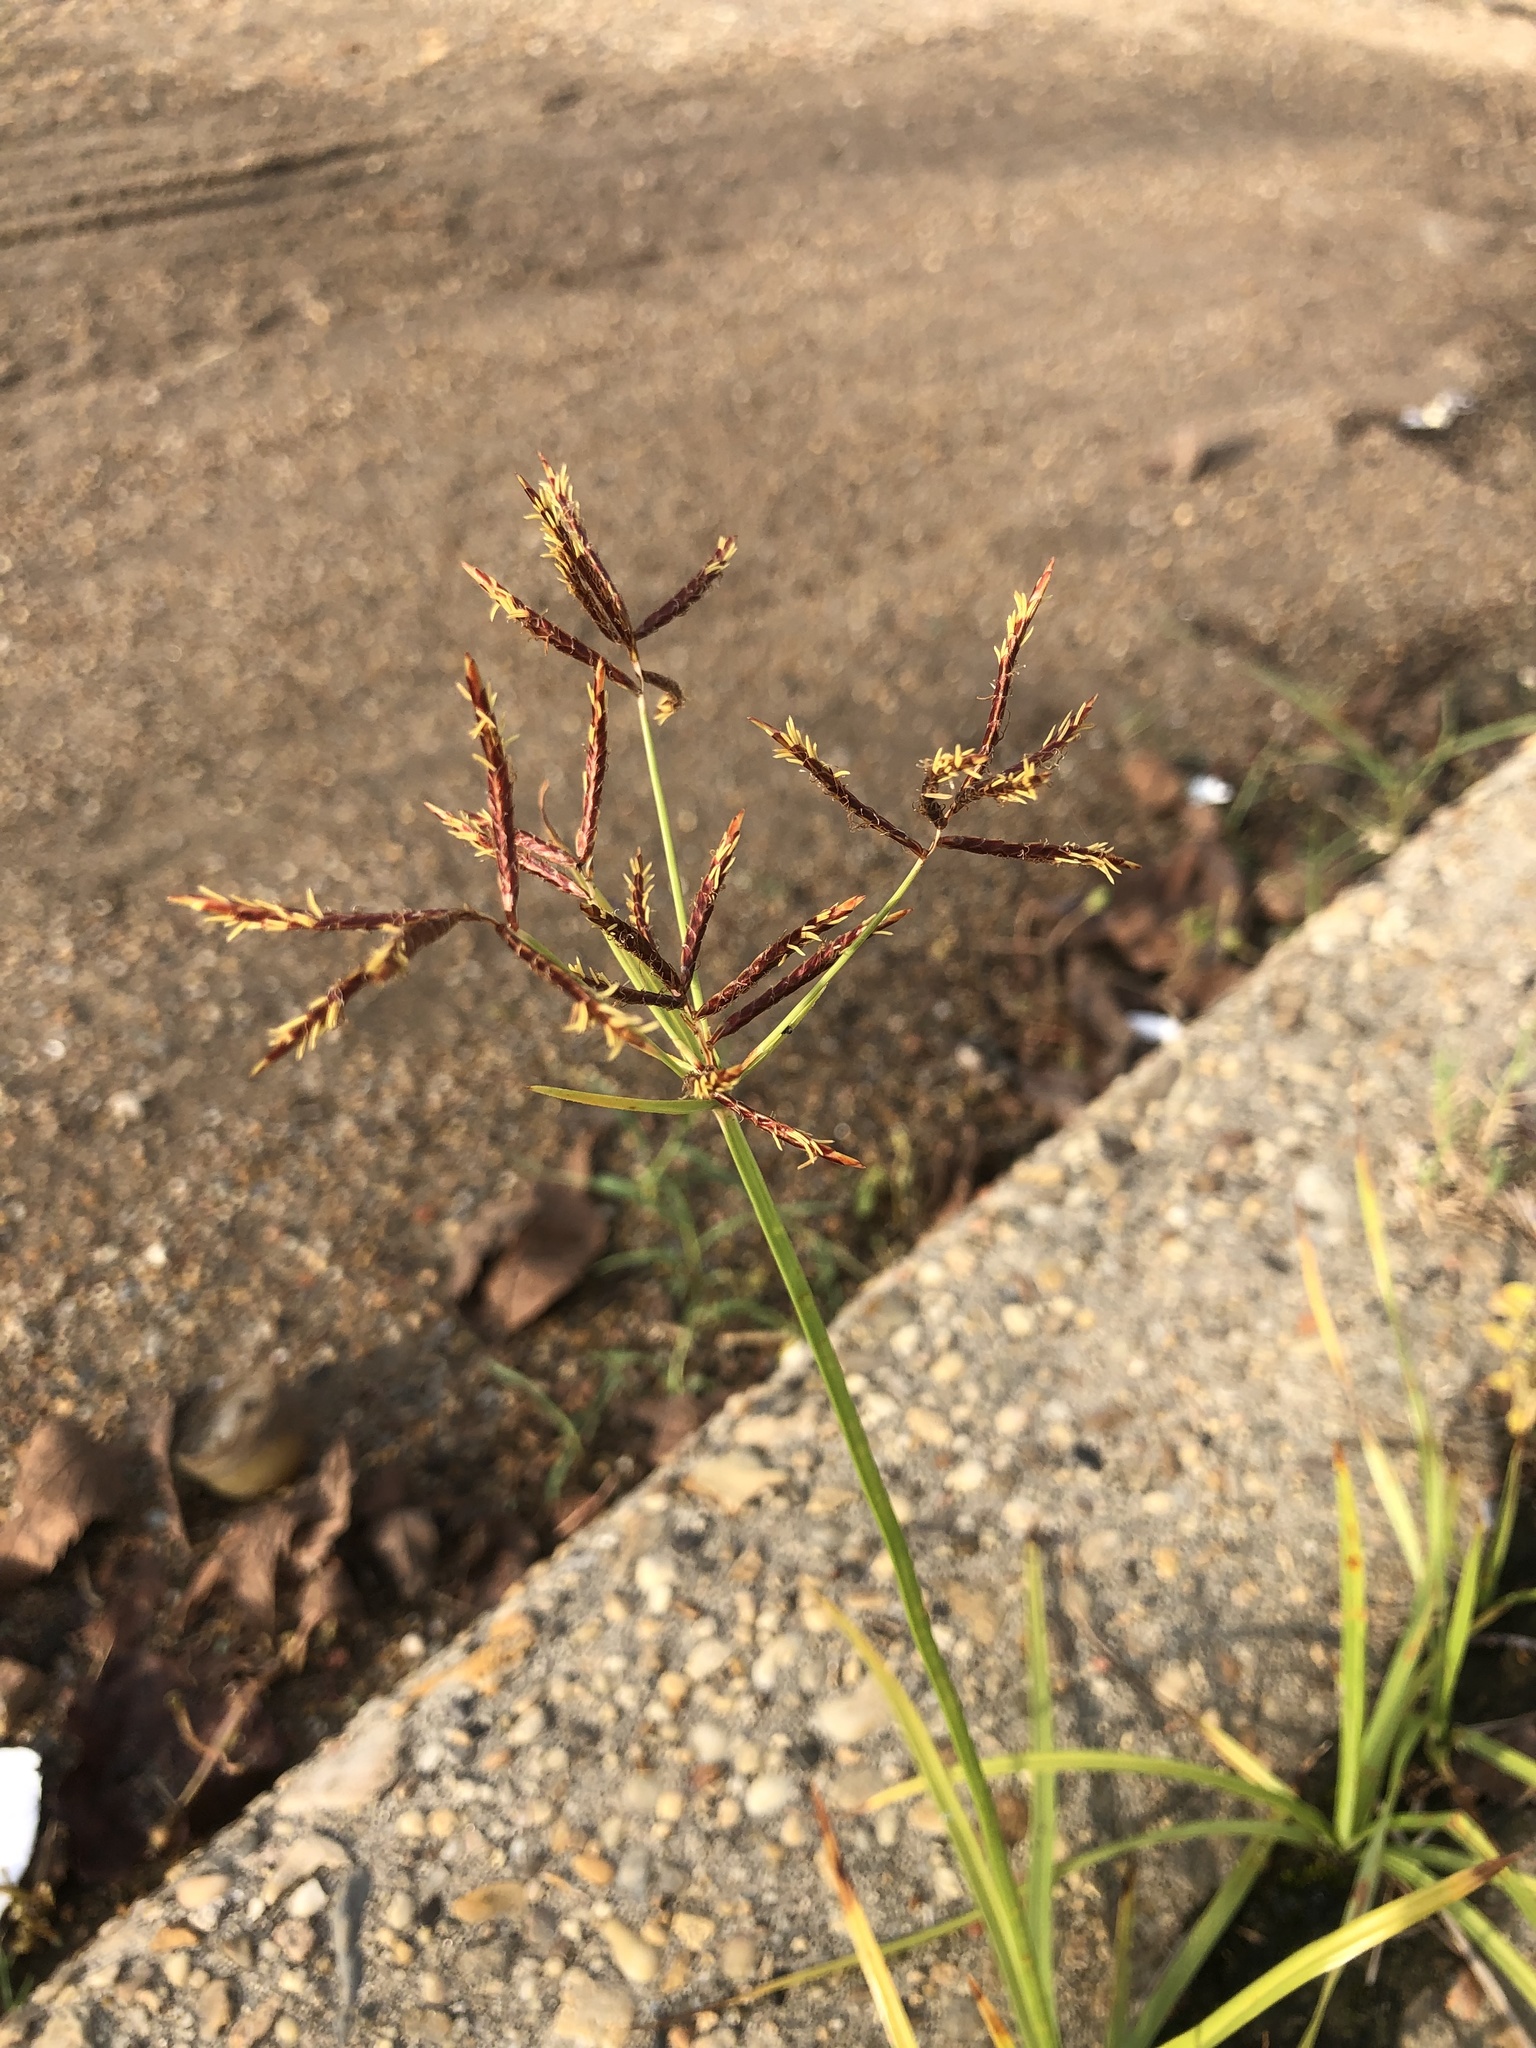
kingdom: Plantae
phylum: Tracheophyta
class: Liliopsida
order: Poales
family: Cyperaceae
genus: Cyperus
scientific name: Cyperus rotundus
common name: Nutgrass
